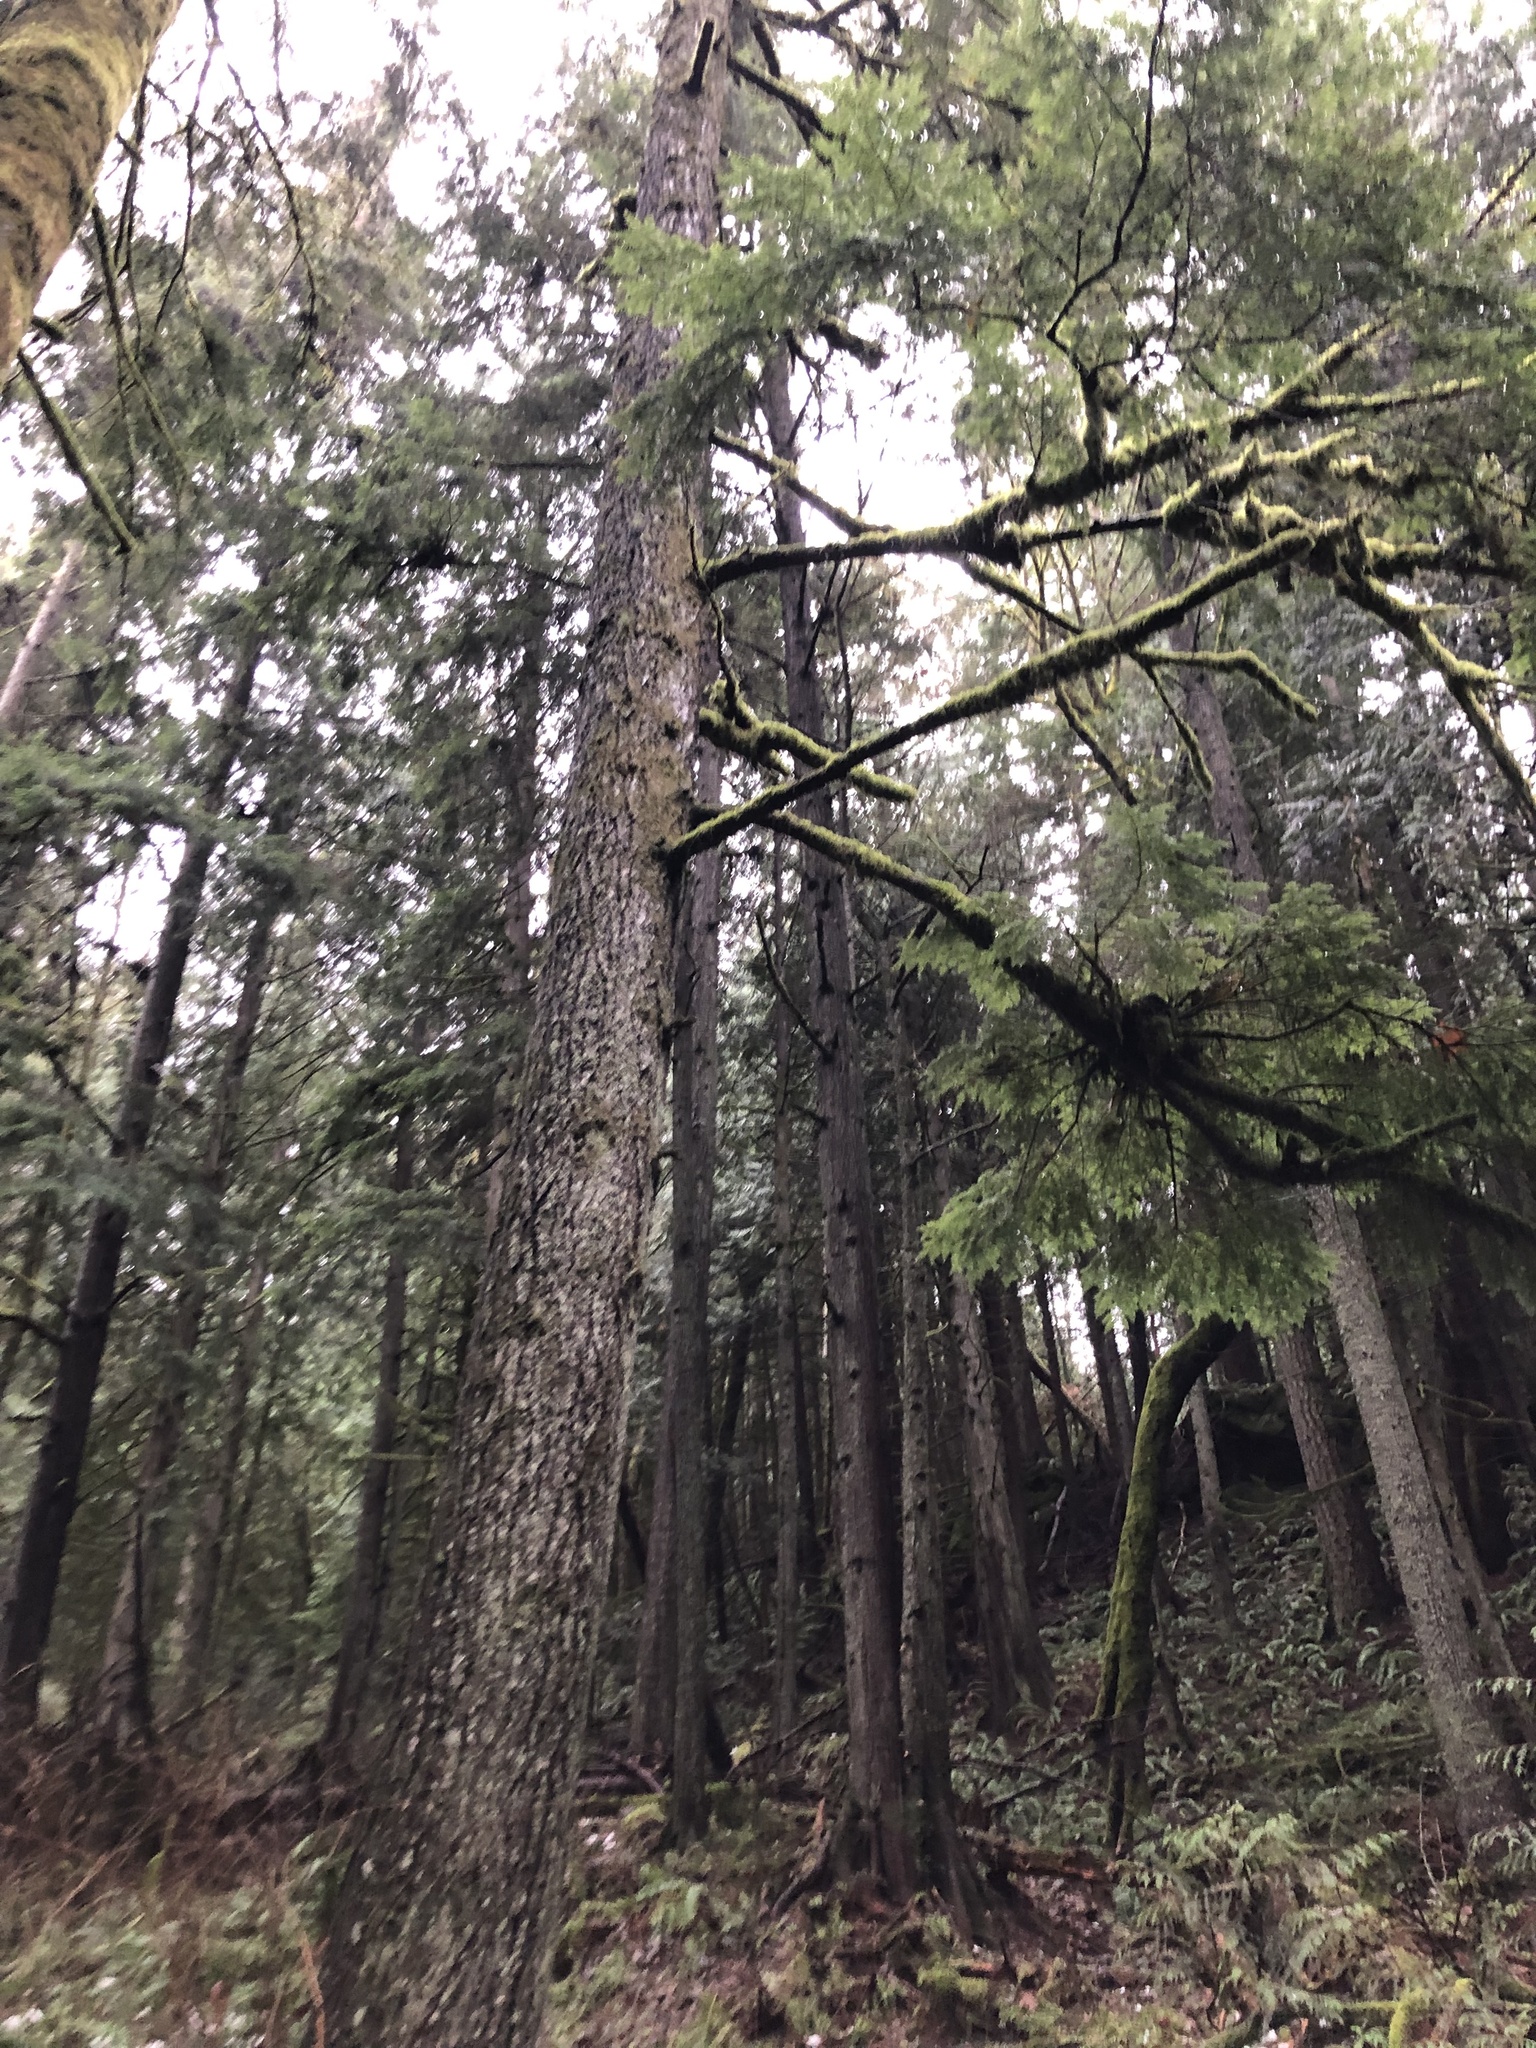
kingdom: Plantae
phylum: Tracheophyta
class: Pinopsida
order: Pinales
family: Pinaceae
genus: Tsuga
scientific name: Tsuga heterophylla
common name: Western hemlock
